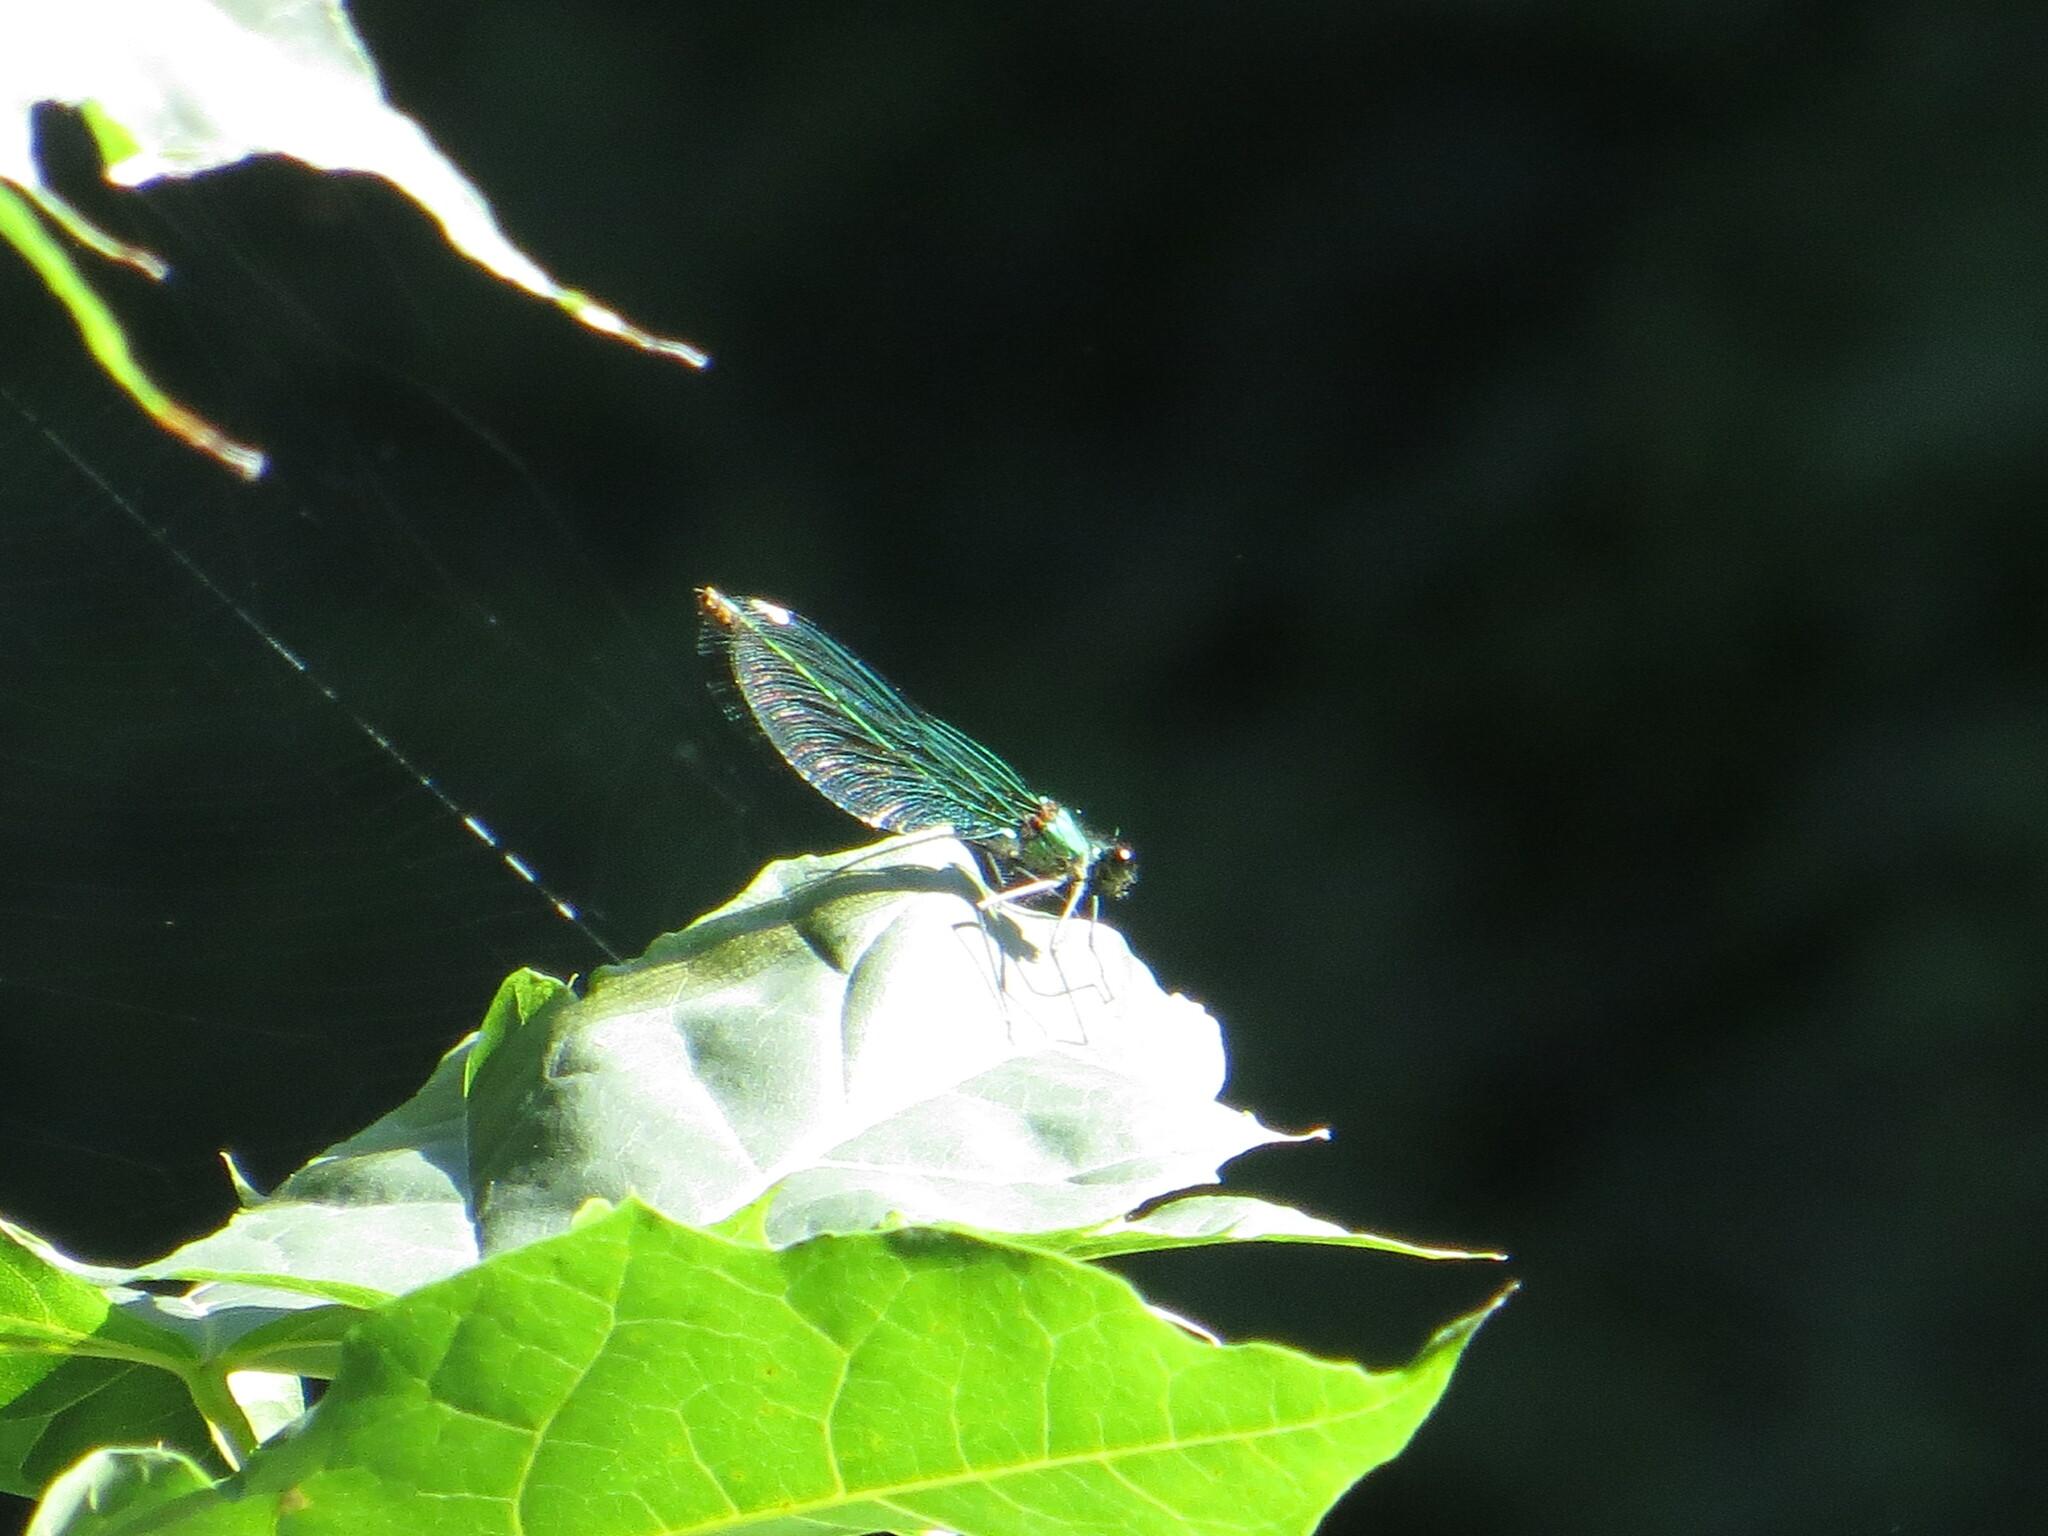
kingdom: Animalia
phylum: Arthropoda
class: Insecta
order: Odonata
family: Calopterygidae
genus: Calopteryx
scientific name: Calopteryx splendens
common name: Banded demoiselle
